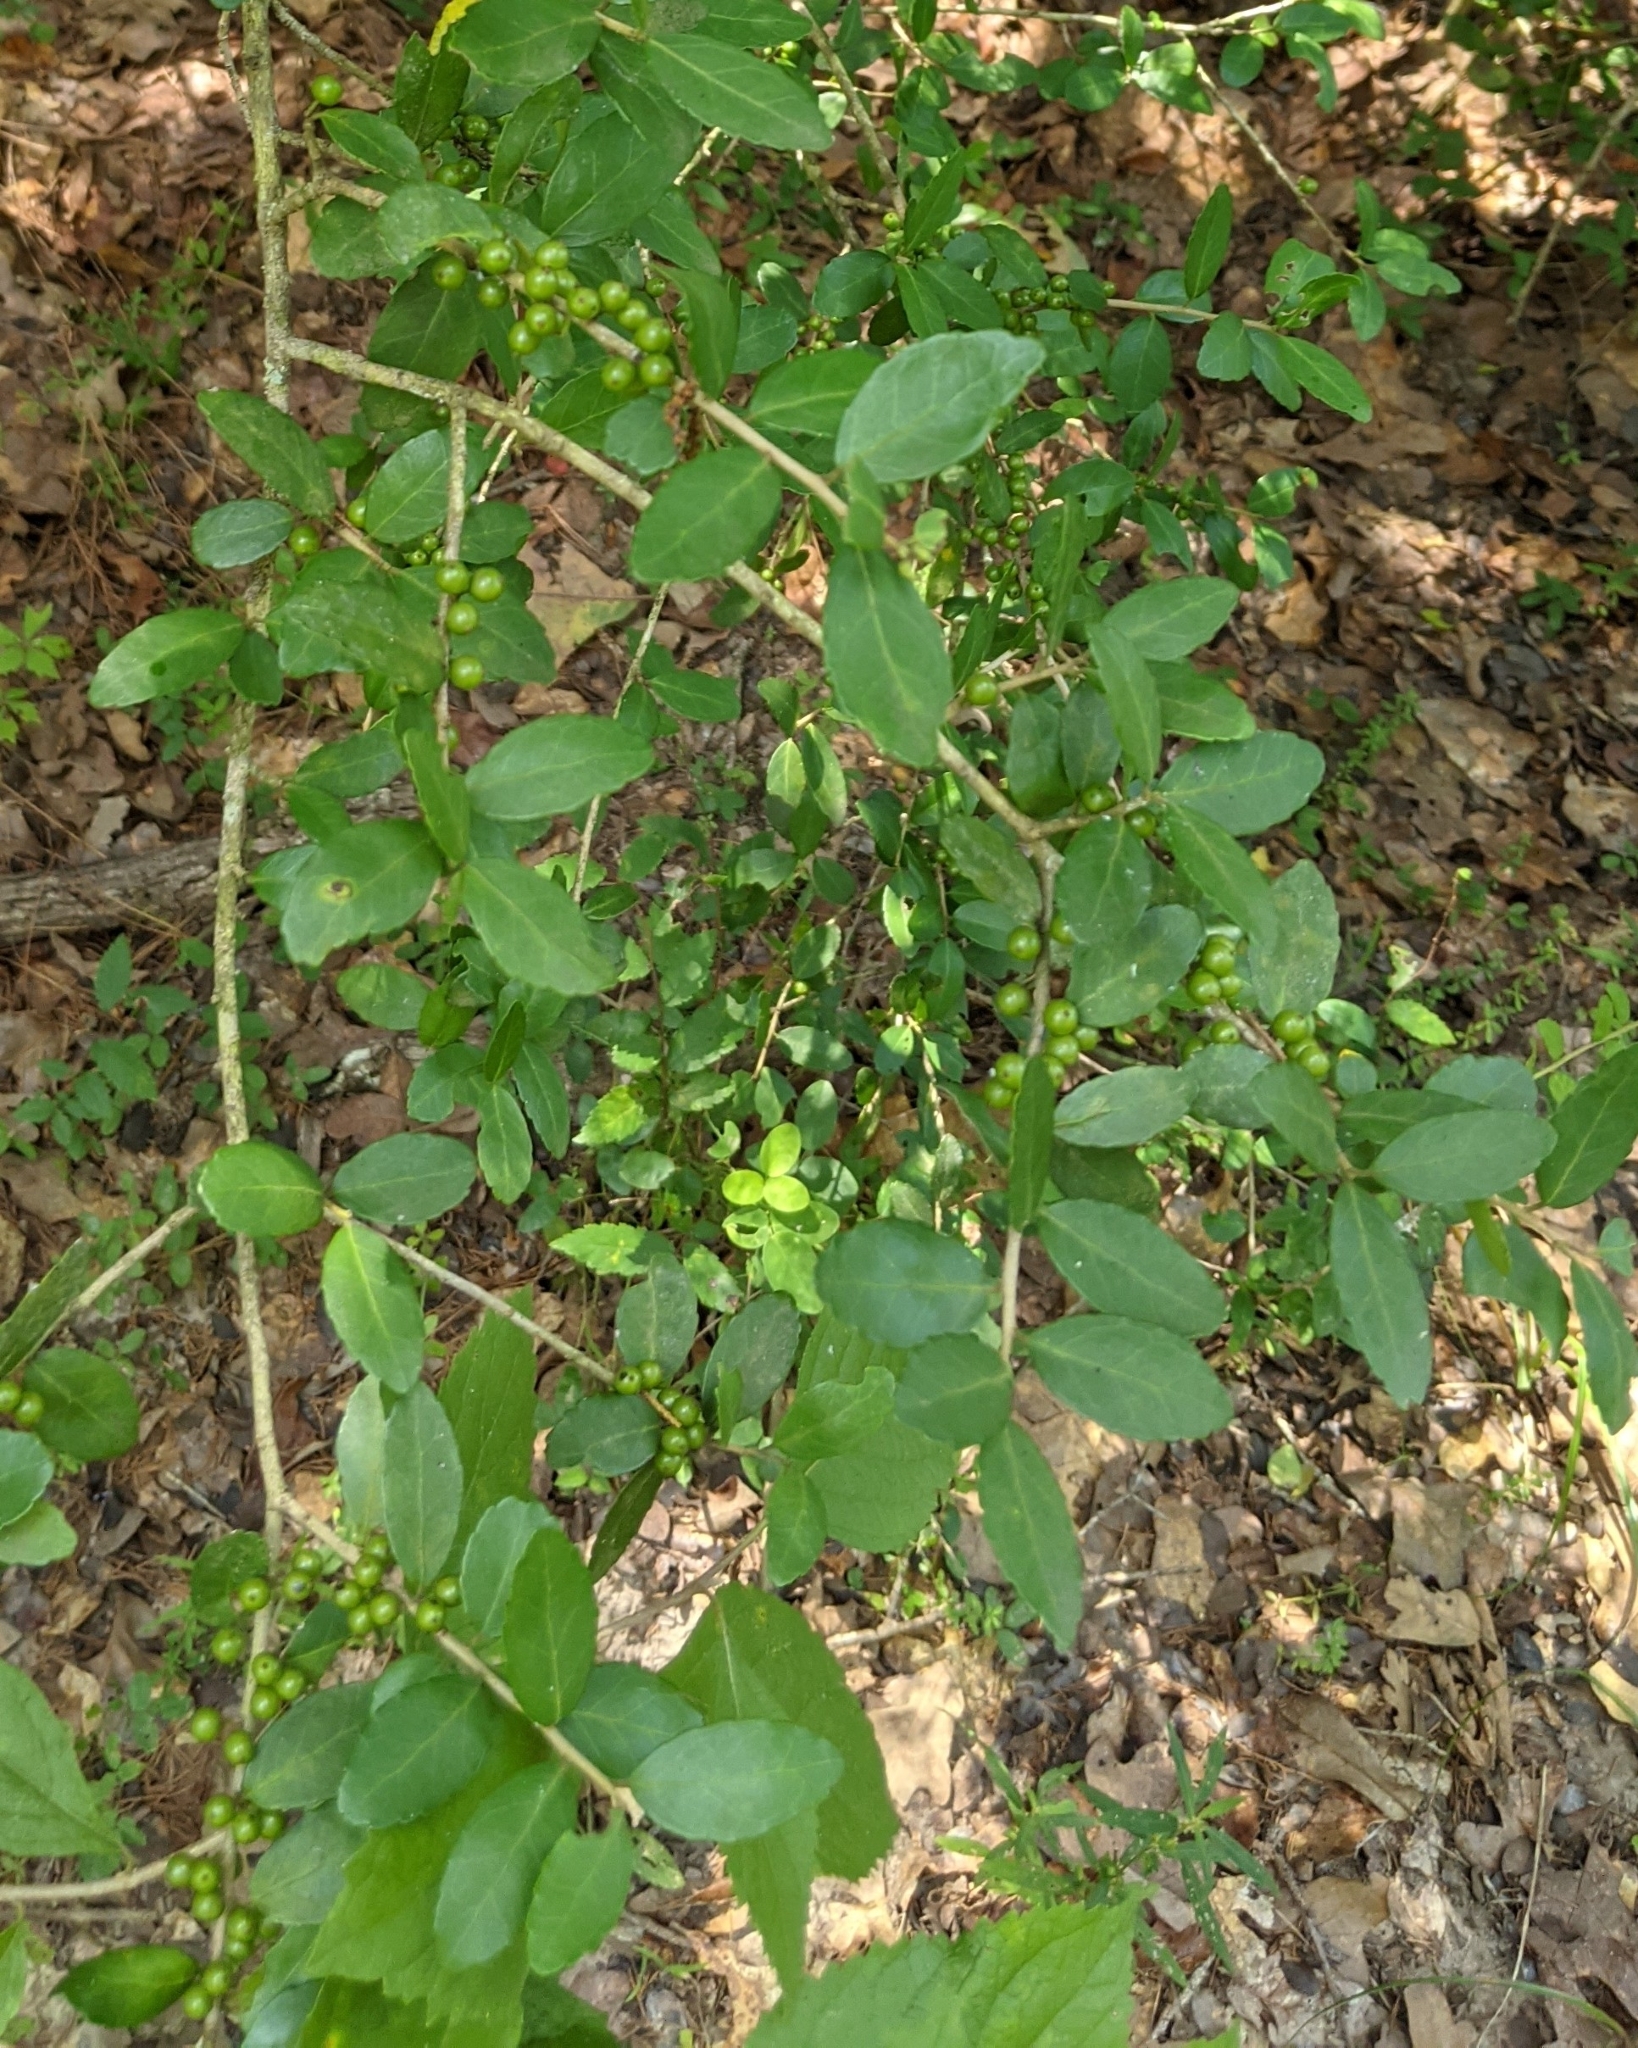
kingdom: Plantae
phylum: Tracheophyta
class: Magnoliopsida
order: Aquifoliales
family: Aquifoliaceae
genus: Ilex
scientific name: Ilex vomitoria
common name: Yaupon holly
